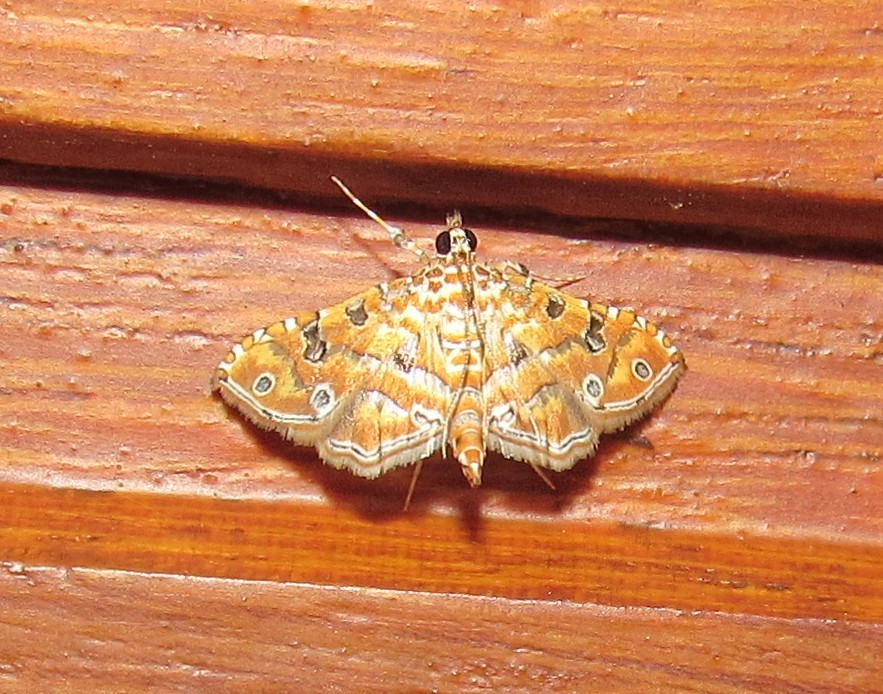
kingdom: Animalia
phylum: Arthropoda
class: Insecta
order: Lepidoptera
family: Crambidae
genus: Ommatospila
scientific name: Ommatospila narcaeusalis
